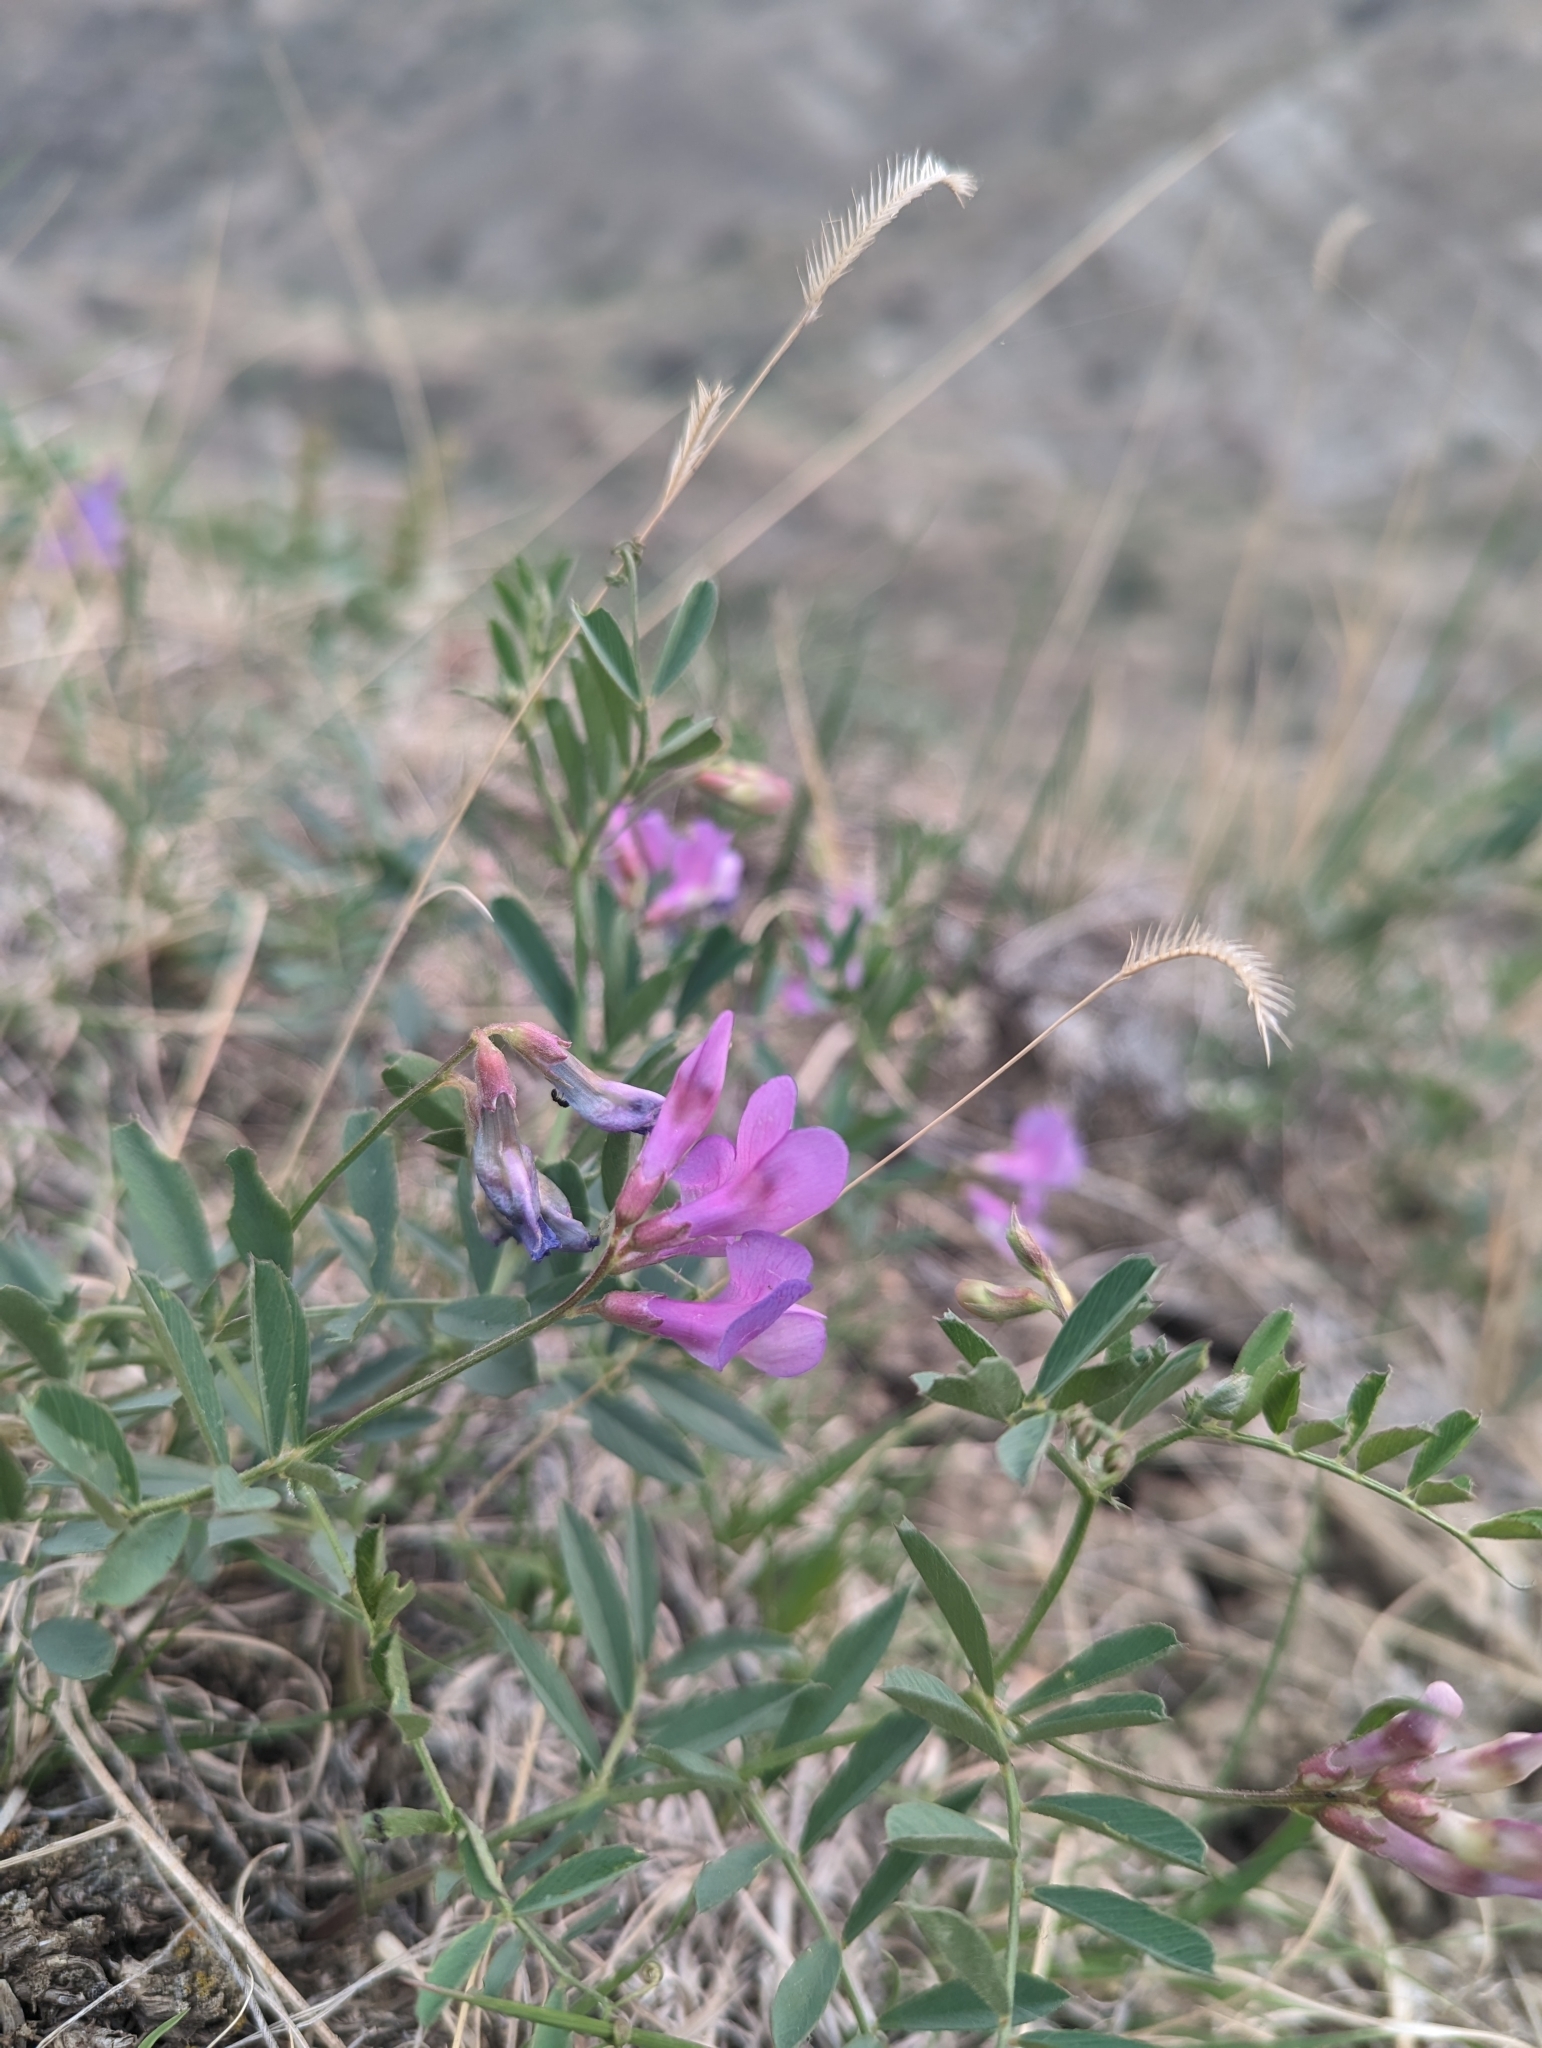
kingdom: Plantae
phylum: Tracheophyta
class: Magnoliopsida
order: Fabales
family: Fabaceae
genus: Vicia
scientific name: Vicia americana
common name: American vetch
